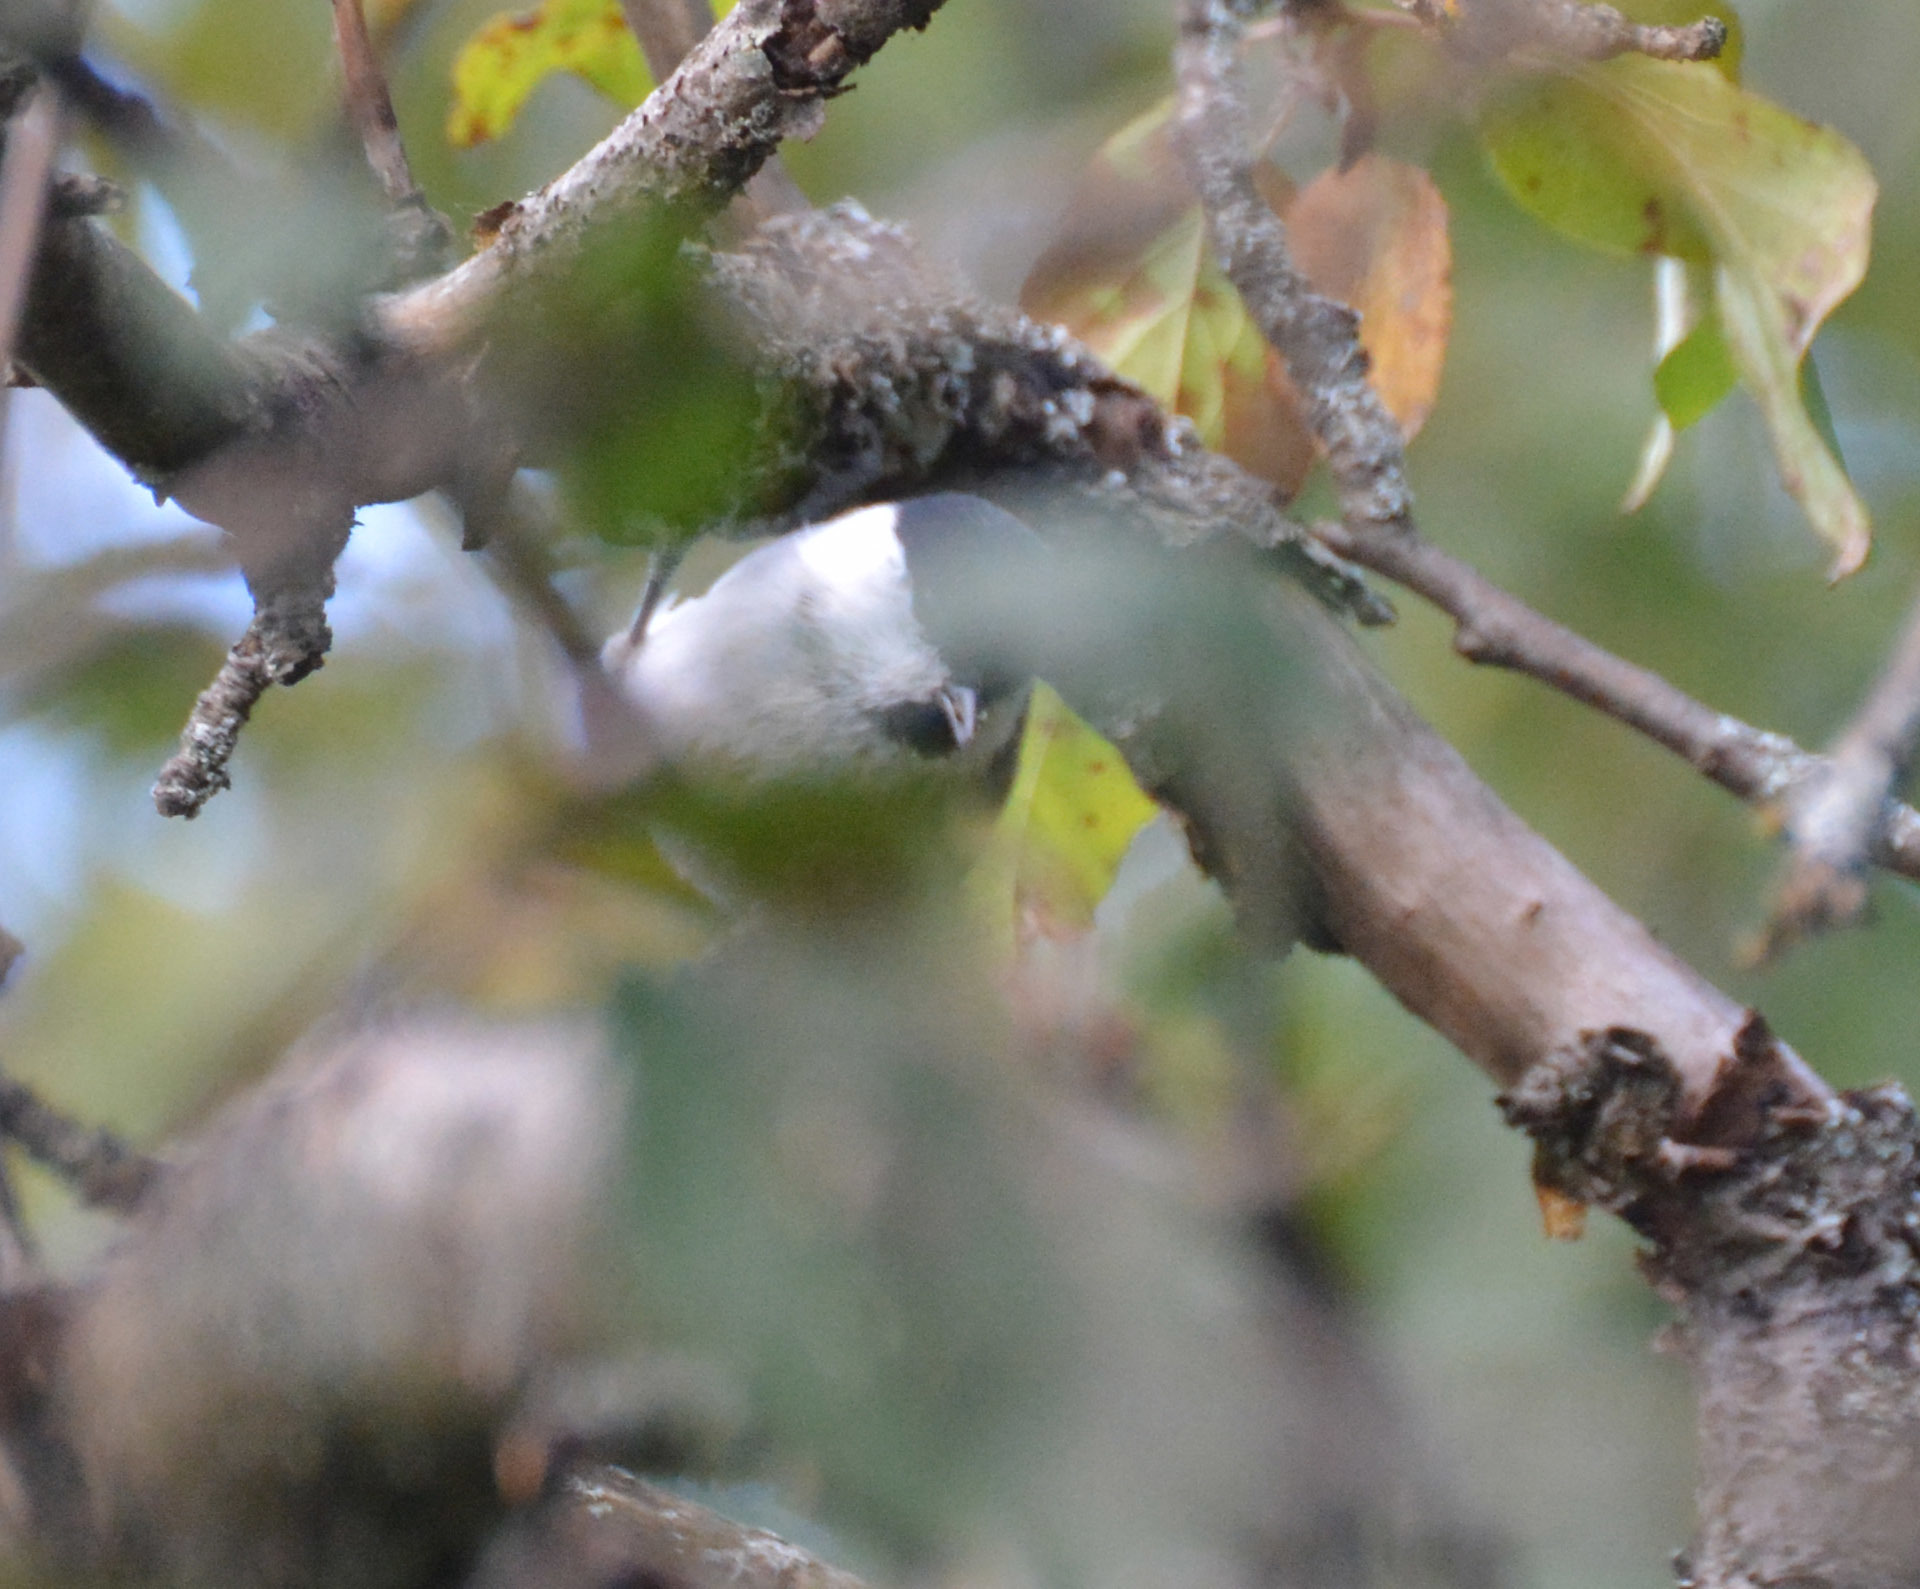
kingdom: Animalia
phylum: Chordata
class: Aves
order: Passeriformes
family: Paridae
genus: Poecile
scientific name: Poecile montanus
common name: Willow tit
